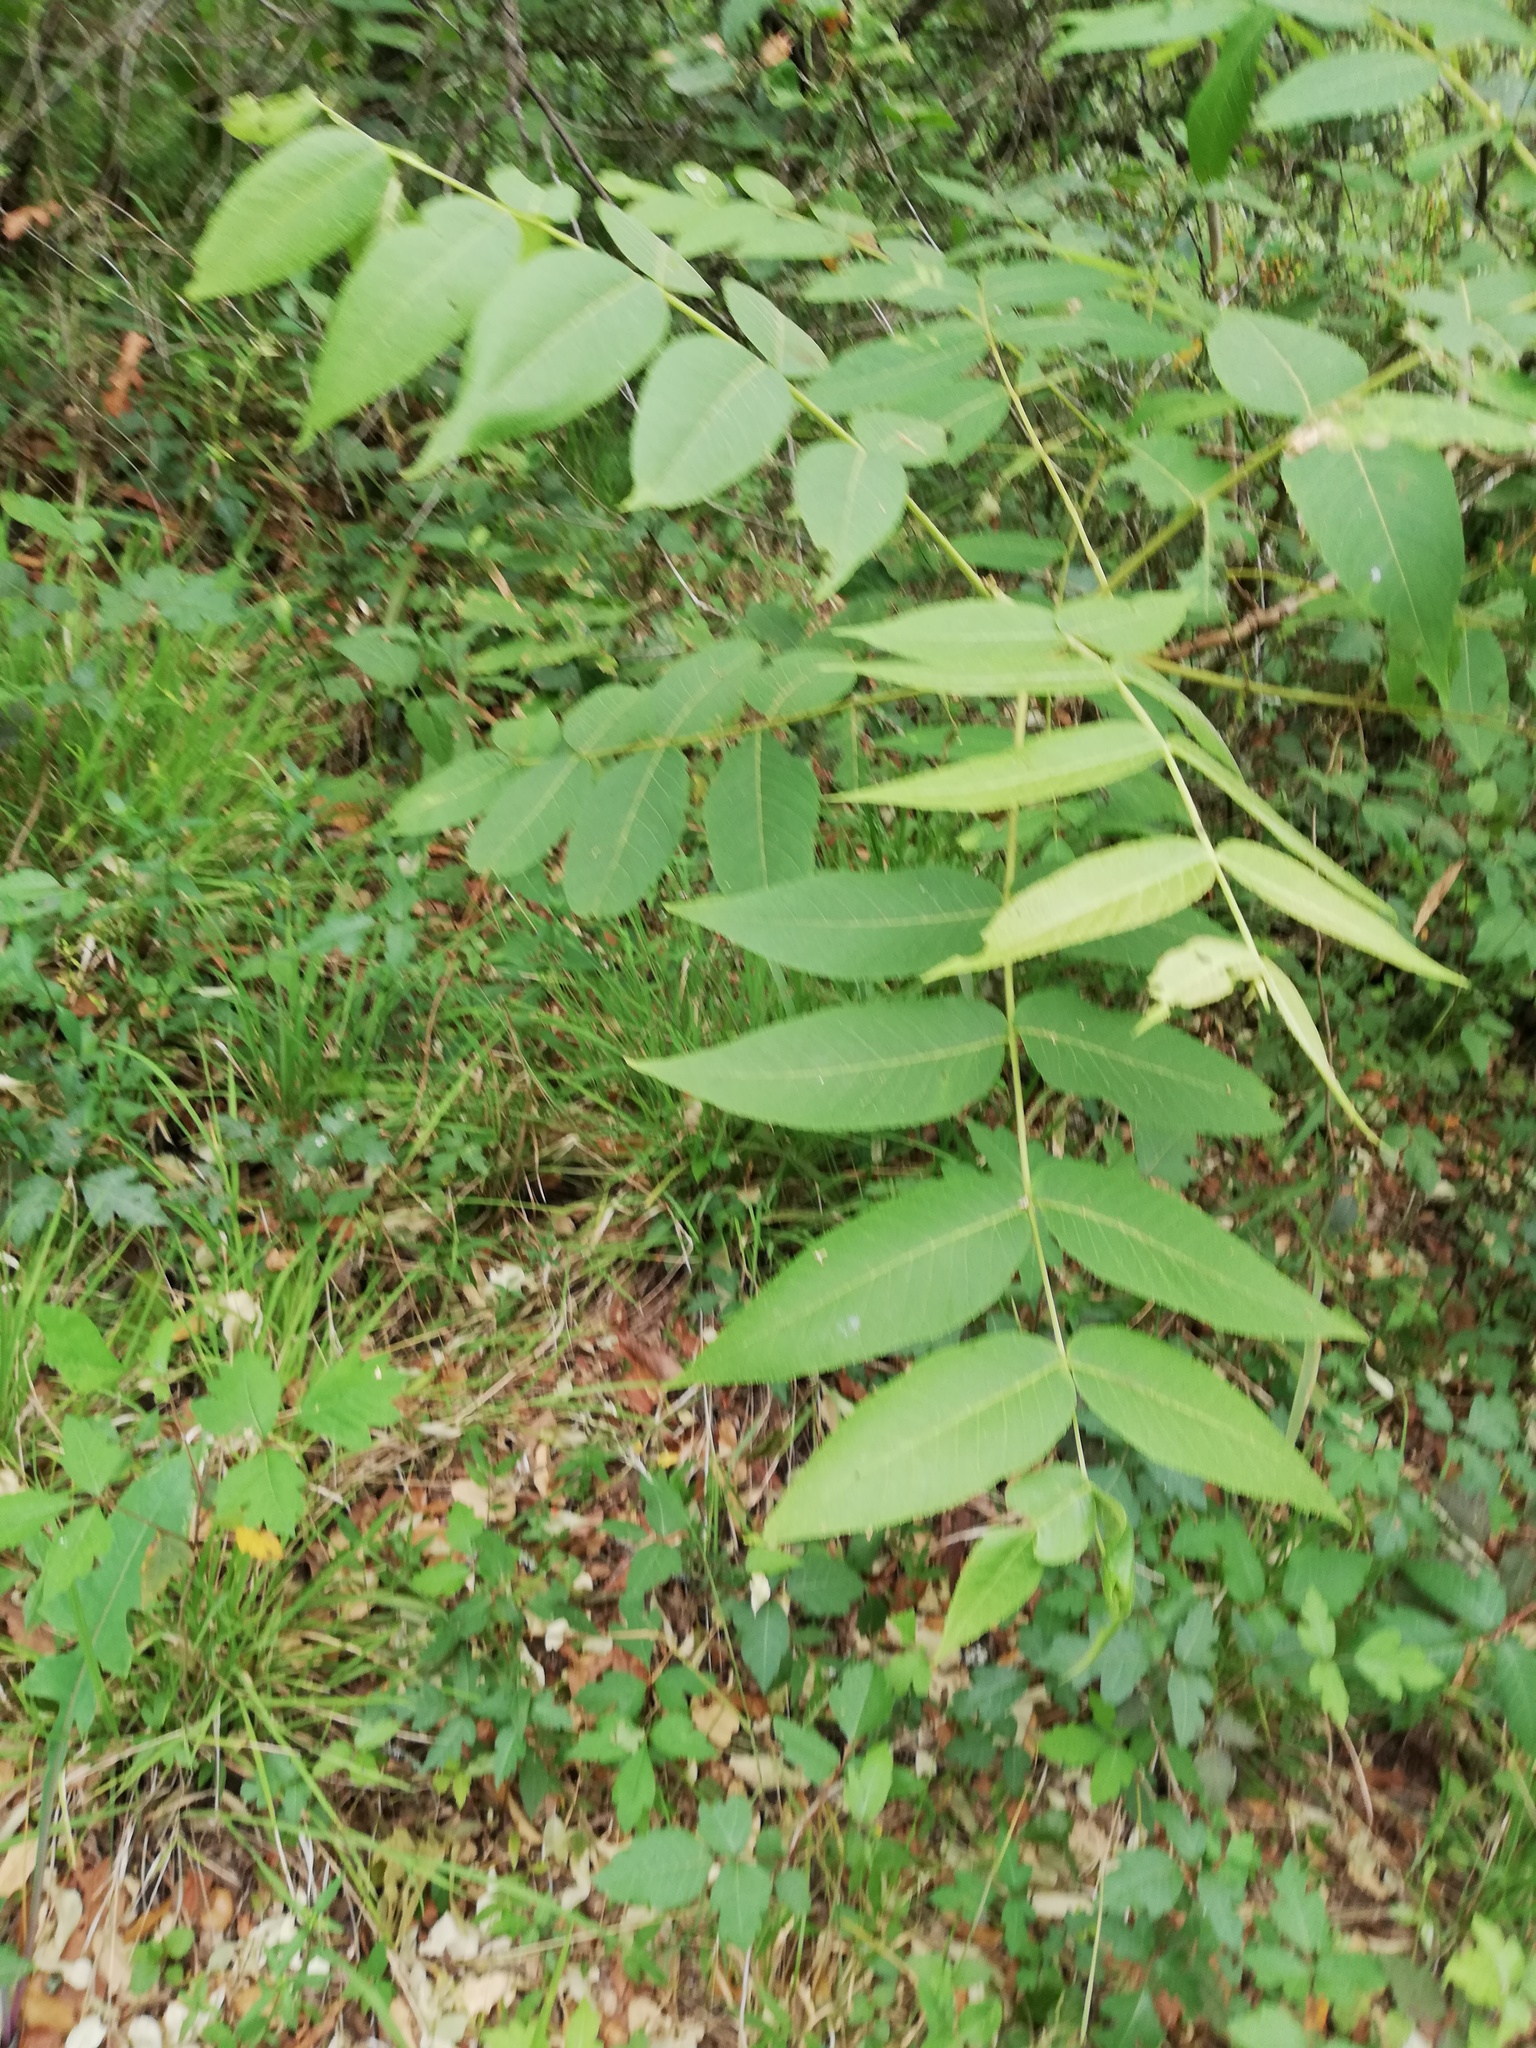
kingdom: Plantae
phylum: Tracheophyta
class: Magnoliopsida
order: Fagales
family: Juglandaceae
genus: Juglans
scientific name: Juglans mollis
